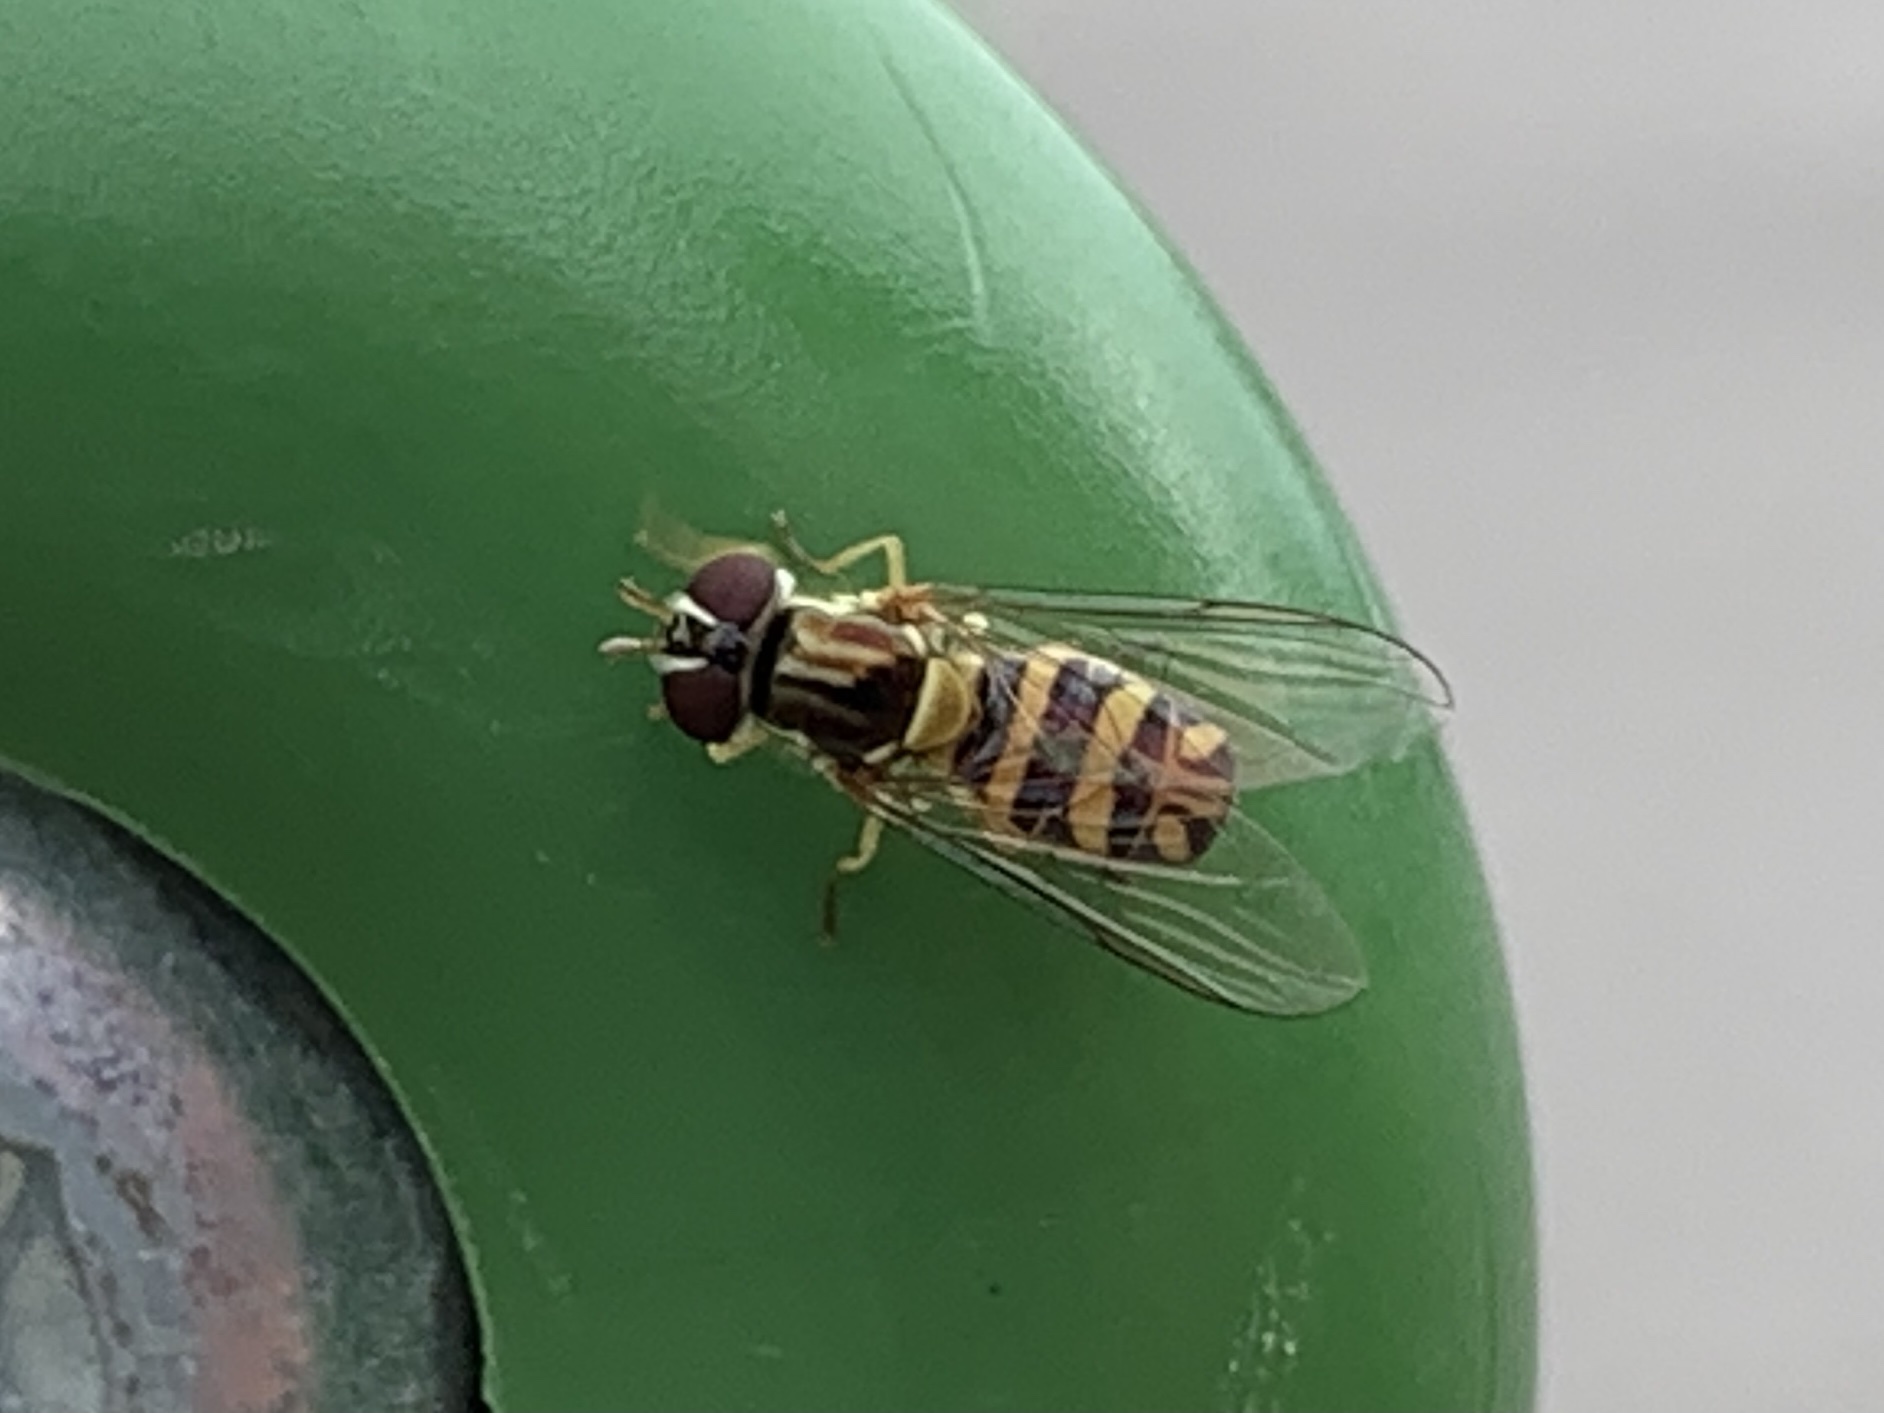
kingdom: Animalia
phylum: Arthropoda
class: Insecta
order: Diptera
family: Syrphidae
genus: Allograpta
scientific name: Allograpta obliqua
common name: Common oblique syrphid
